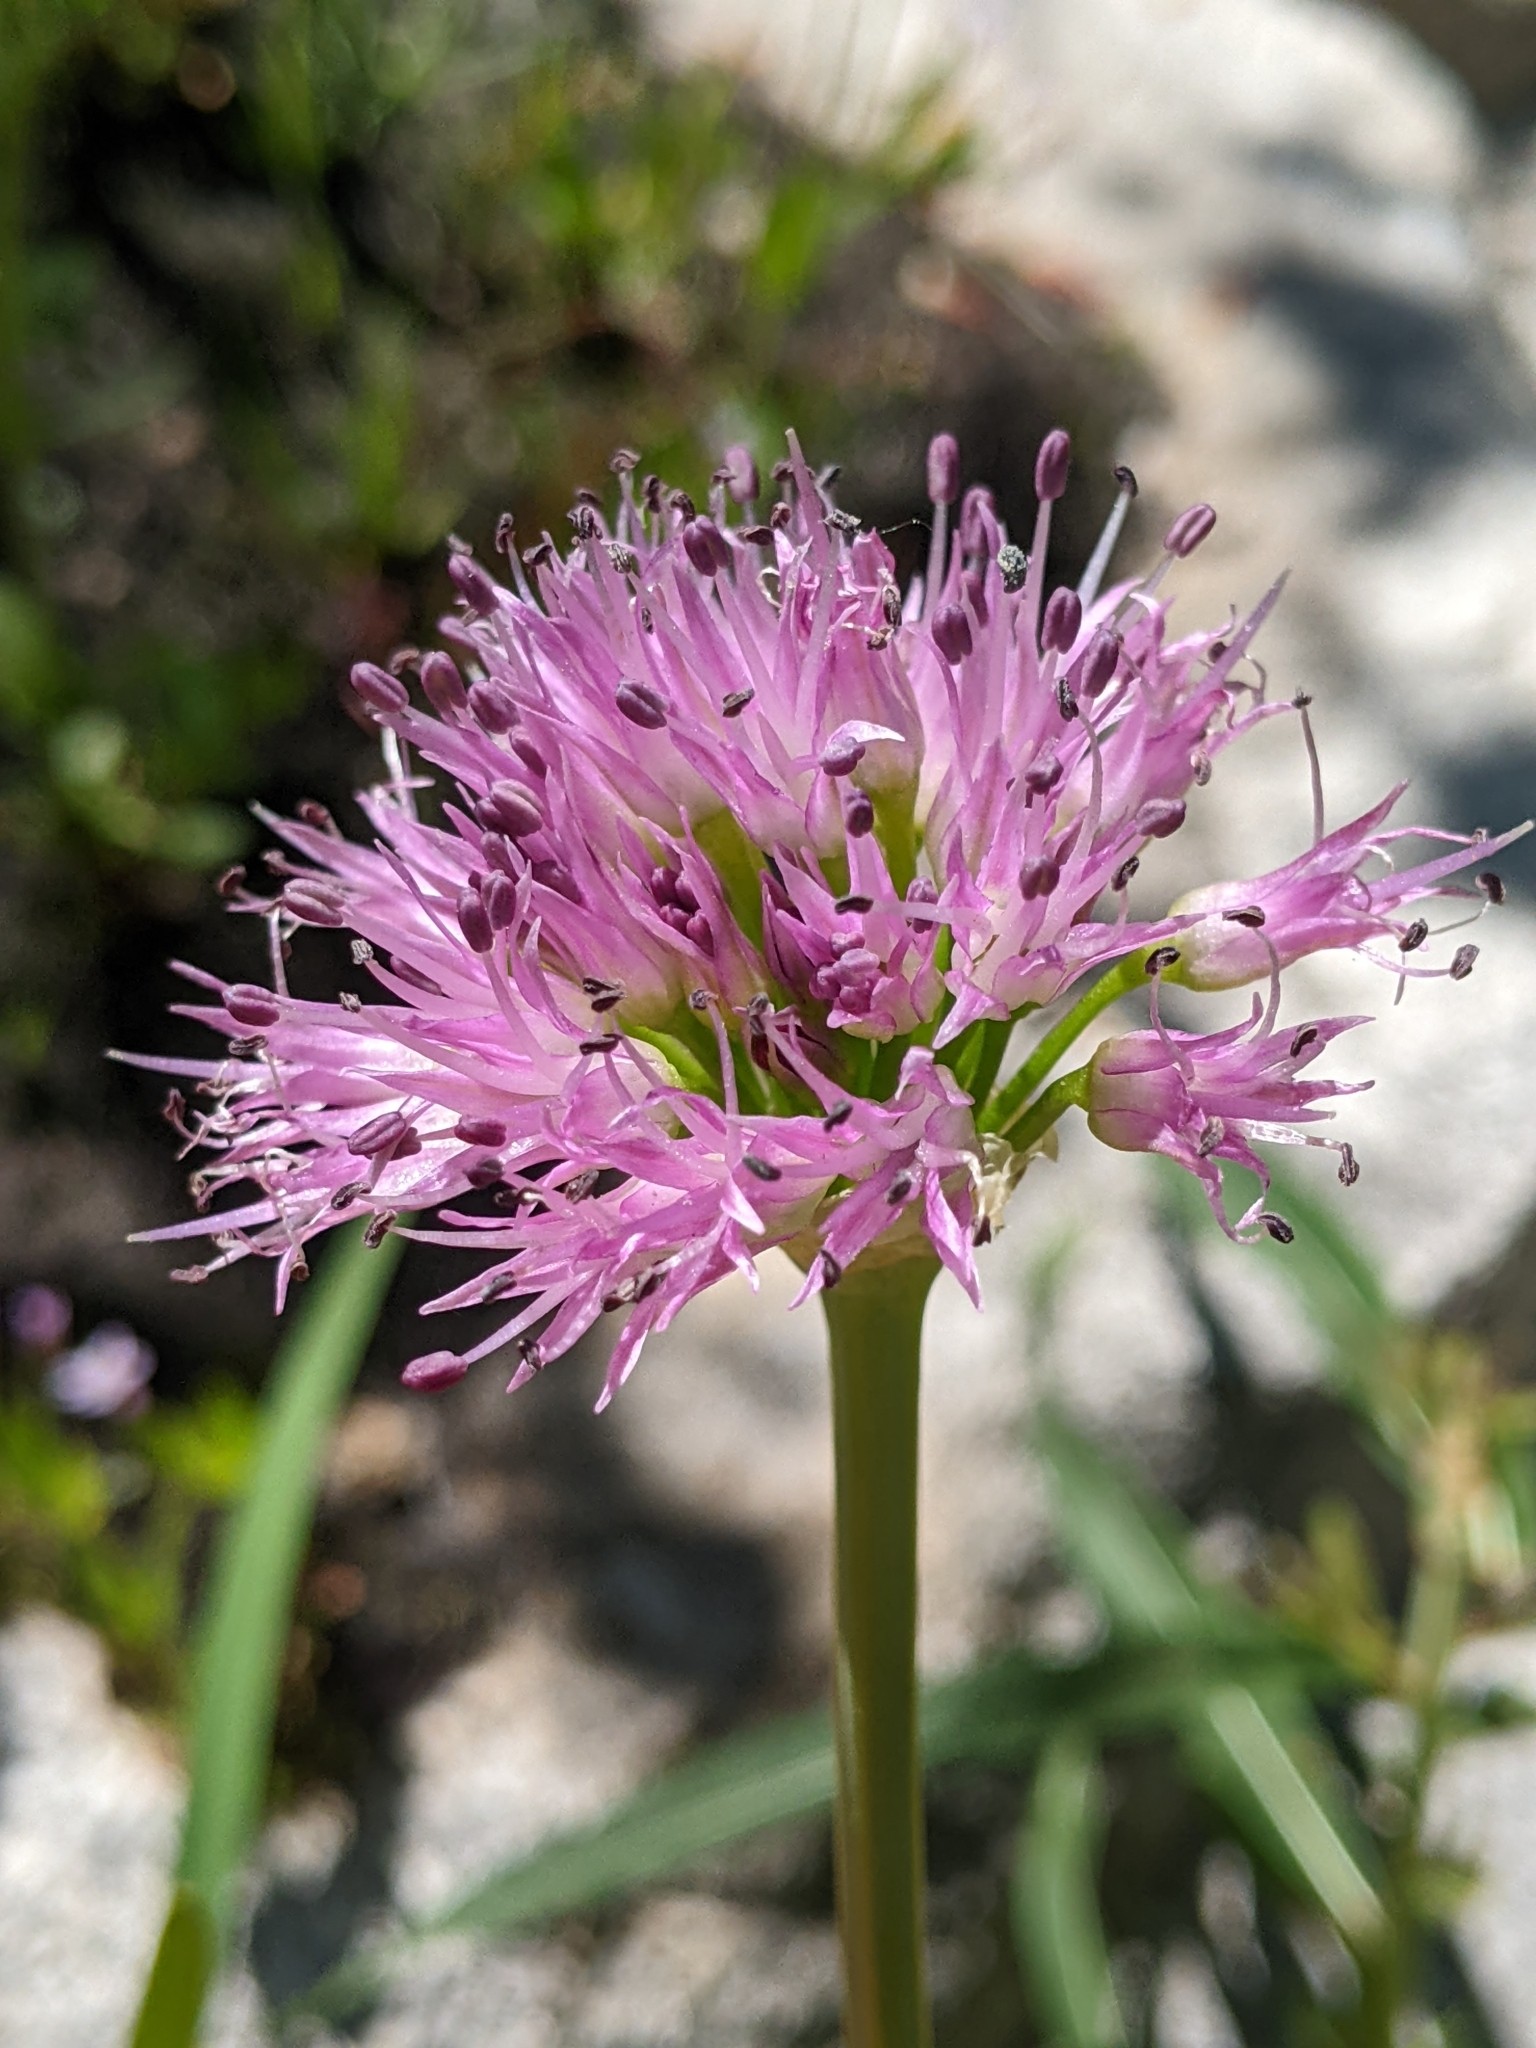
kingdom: Plantae
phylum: Tracheophyta
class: Liliopsida
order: Asparagales
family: Amaryllidaceae
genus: Allium
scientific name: Allium validum
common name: Pacific mountain onion
